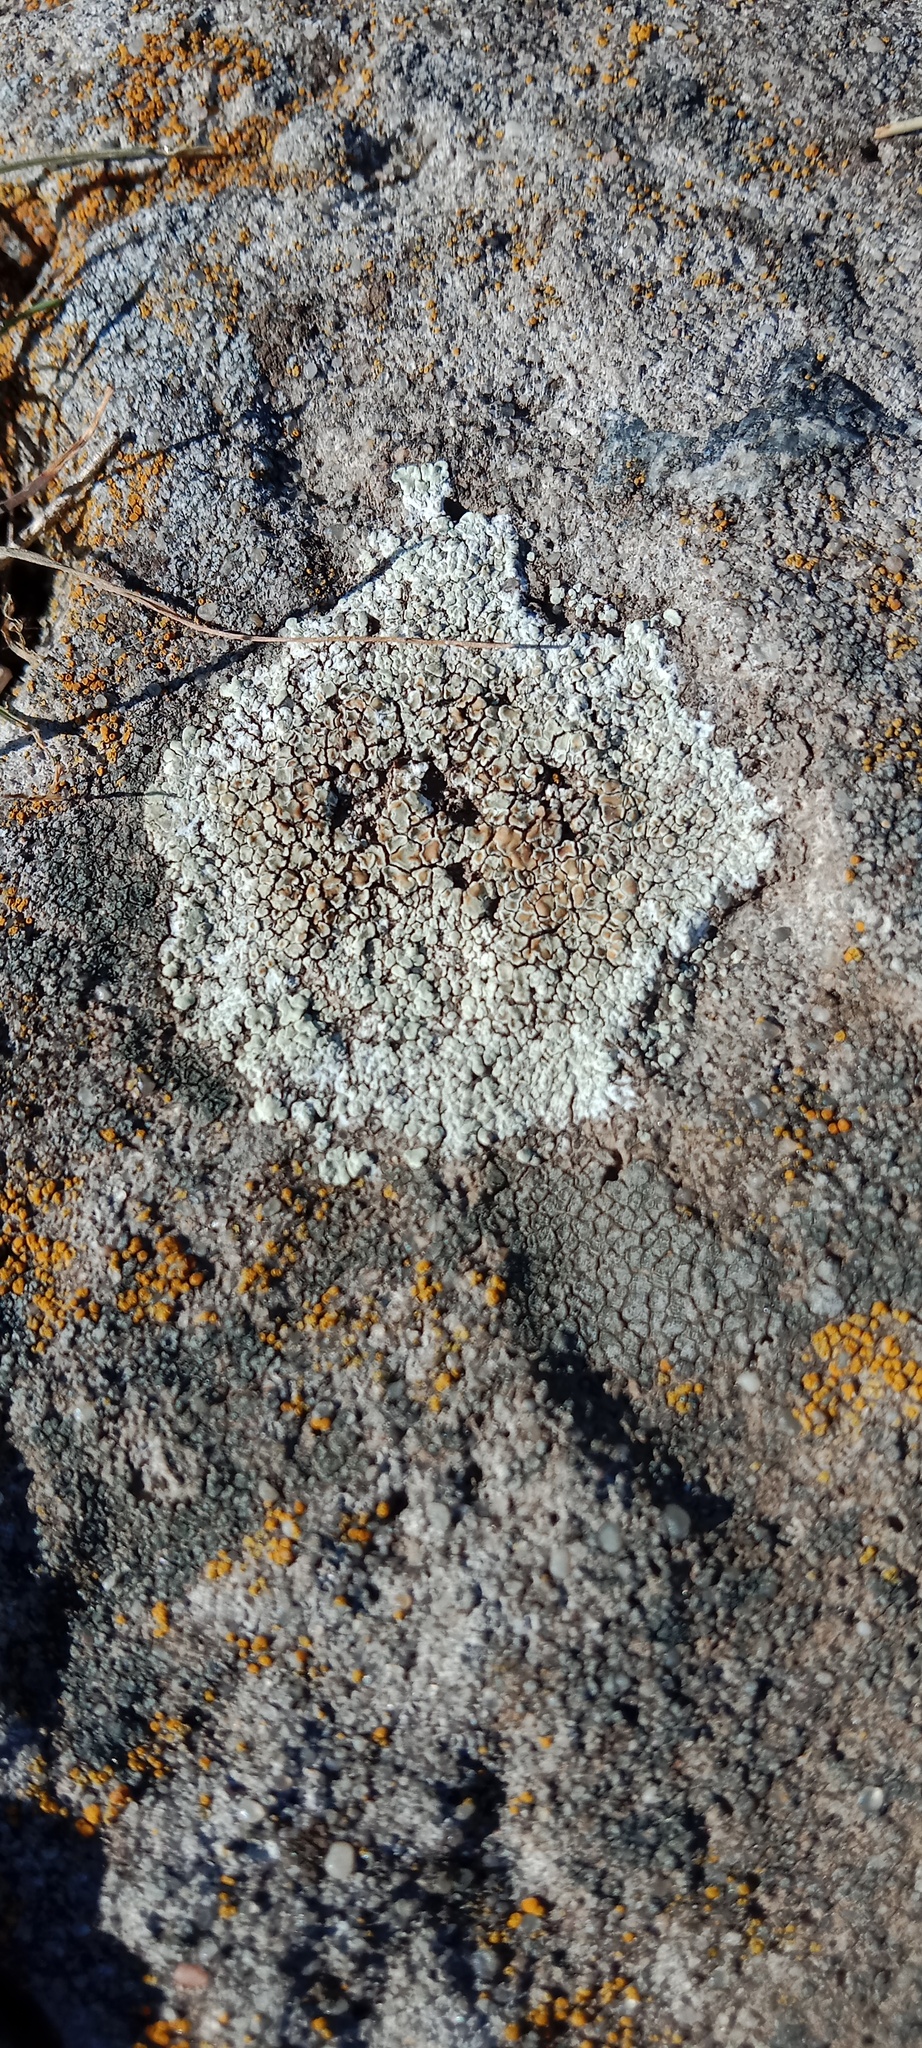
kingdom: Fungi
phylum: Ascomycota
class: Lecanoromycetes
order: Lecanorales
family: Lecanoraceae
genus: Protoparmeliopsis
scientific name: Protoparmeliopsis muralis
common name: Stonewall rim lichen
